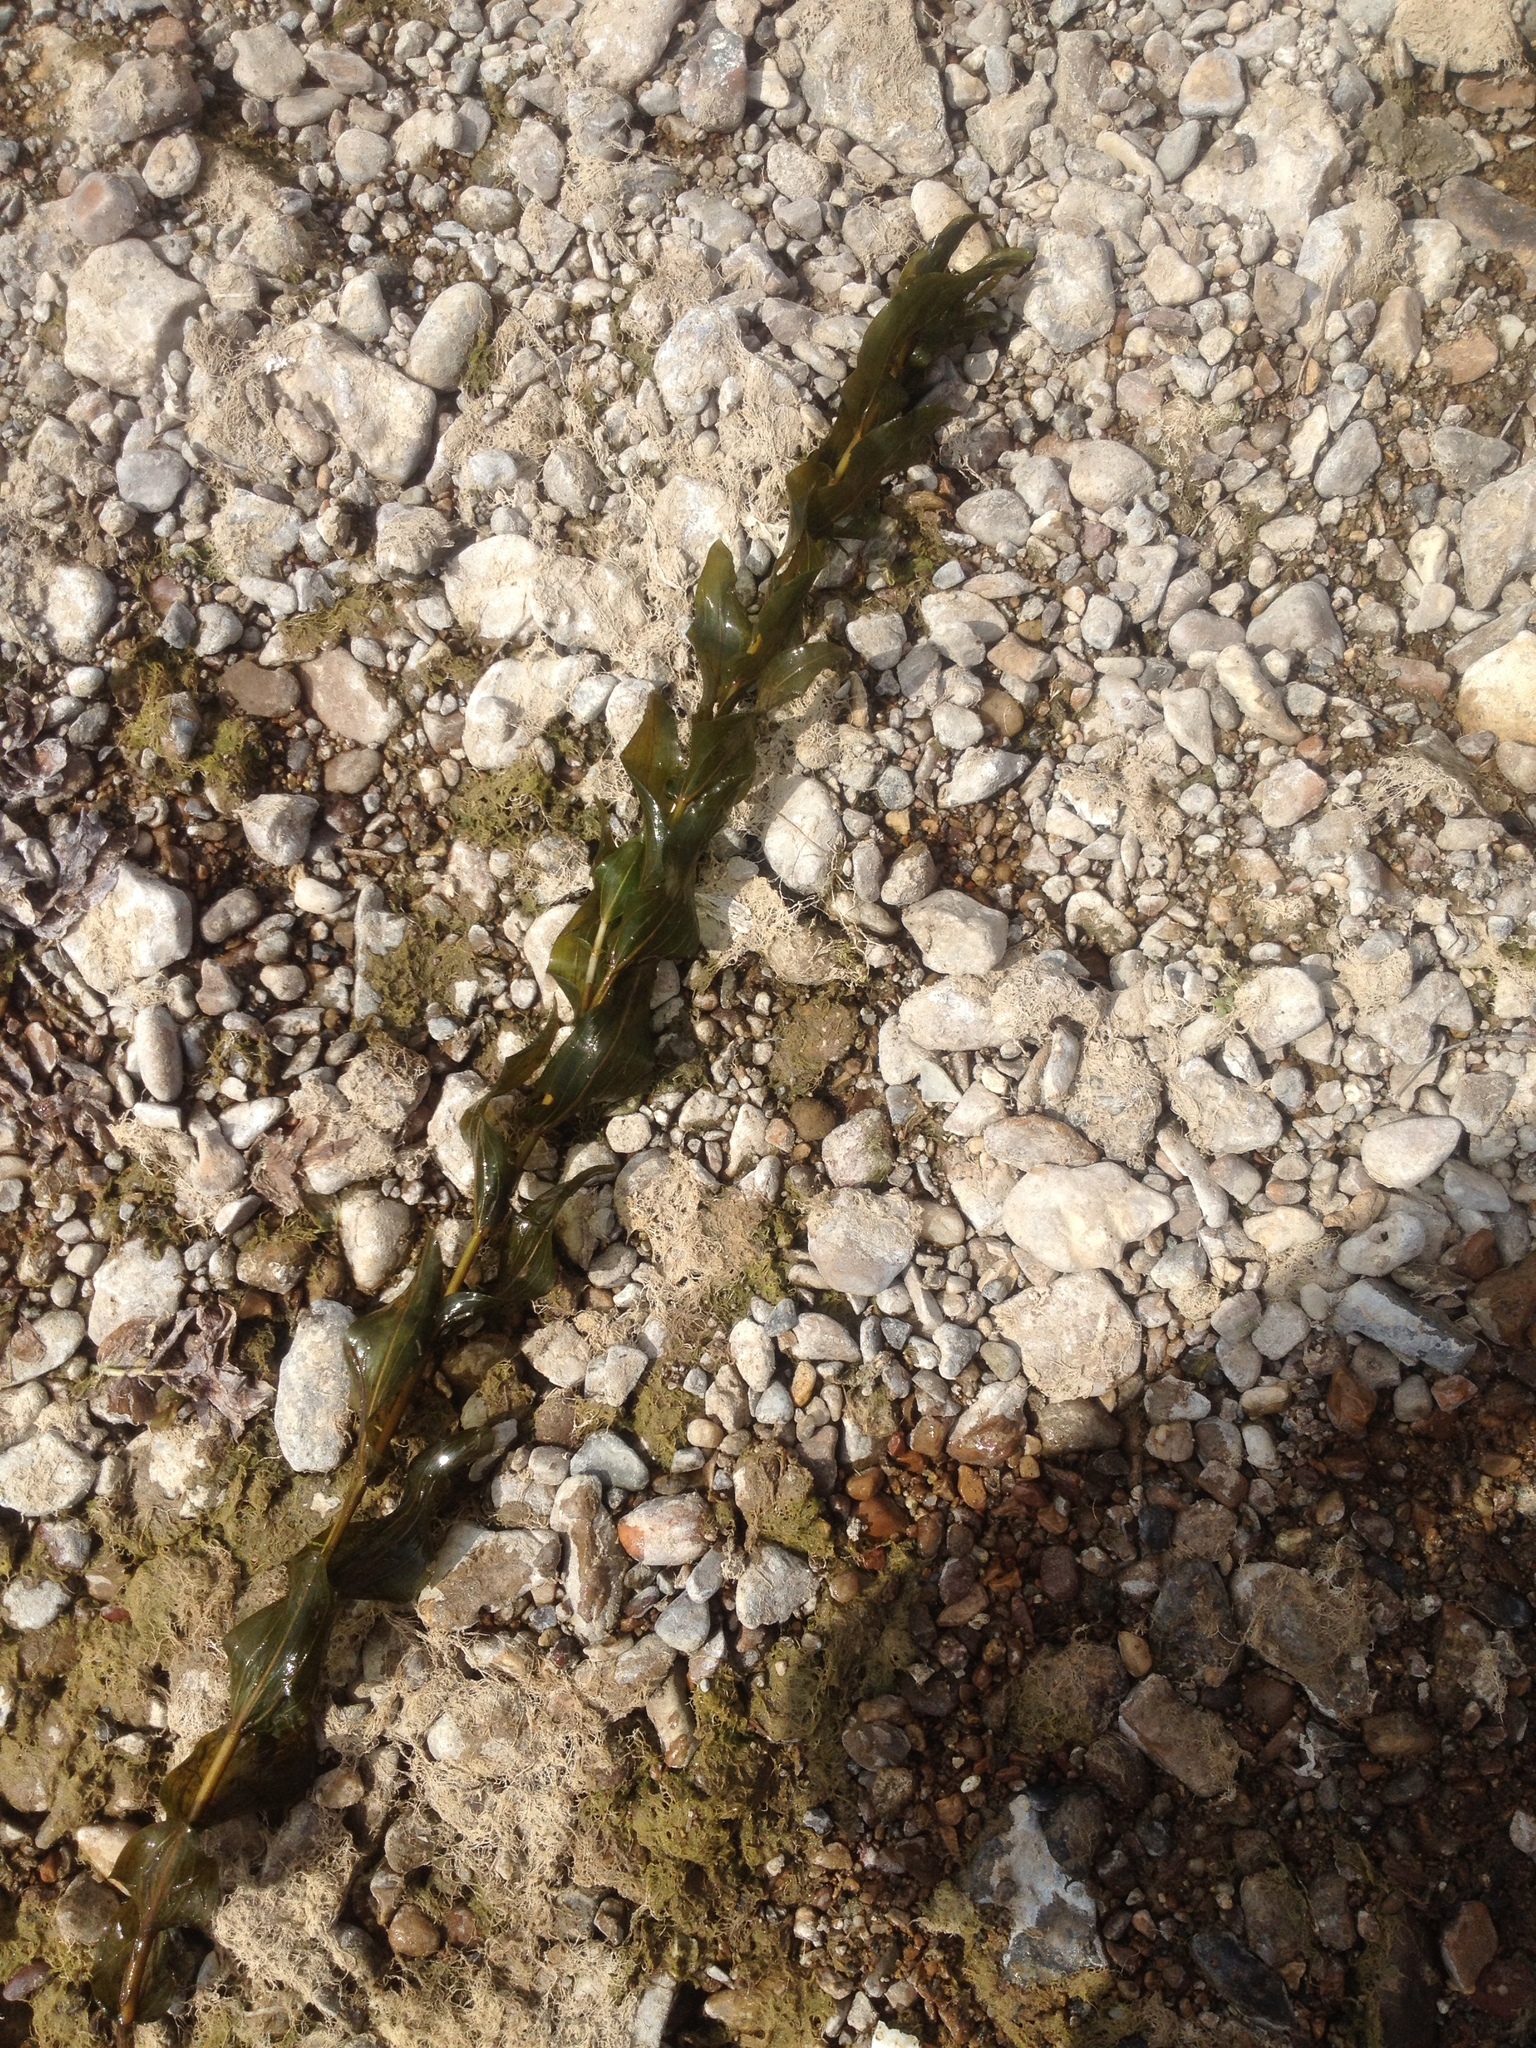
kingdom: Plantae
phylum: Tracheophyta
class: Liliopsida
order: Alismatales
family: Potamogetonaceae
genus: Potamogeton
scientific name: Potamogeton perfoliatus
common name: Perfoliate pondweed
